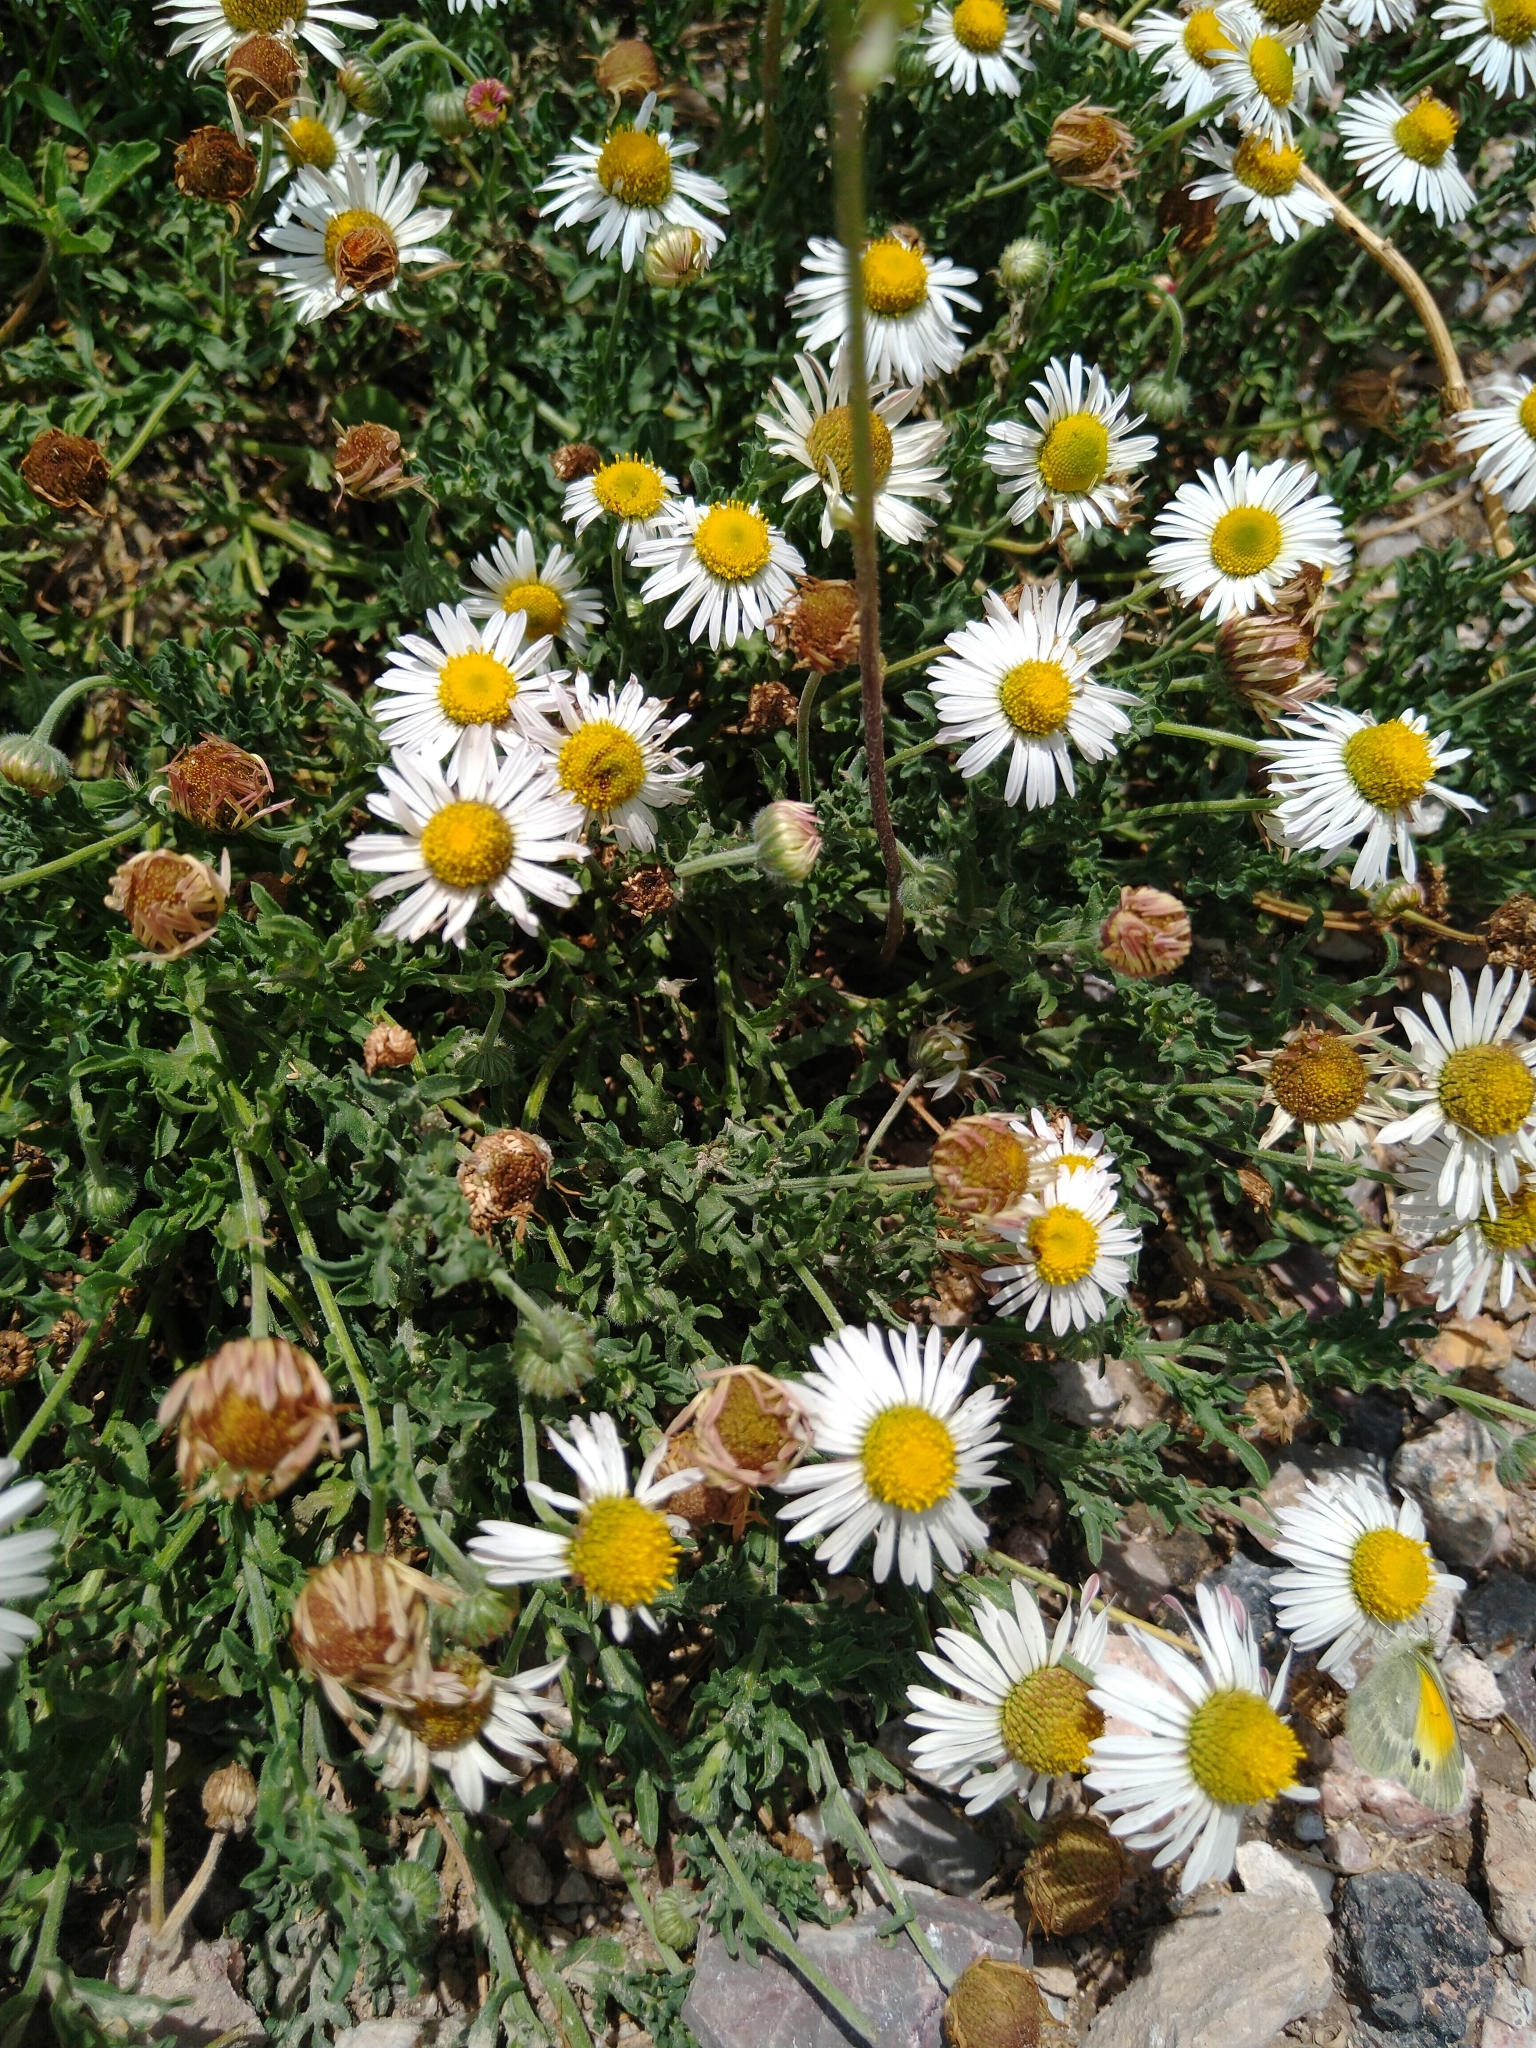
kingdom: Plantae
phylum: Tracheophyta
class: Magnoliopsida
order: Asterales
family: Asteraceae
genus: Aphanostephus
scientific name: Aphanostephus ramosissimus
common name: Plains lazy daisy
